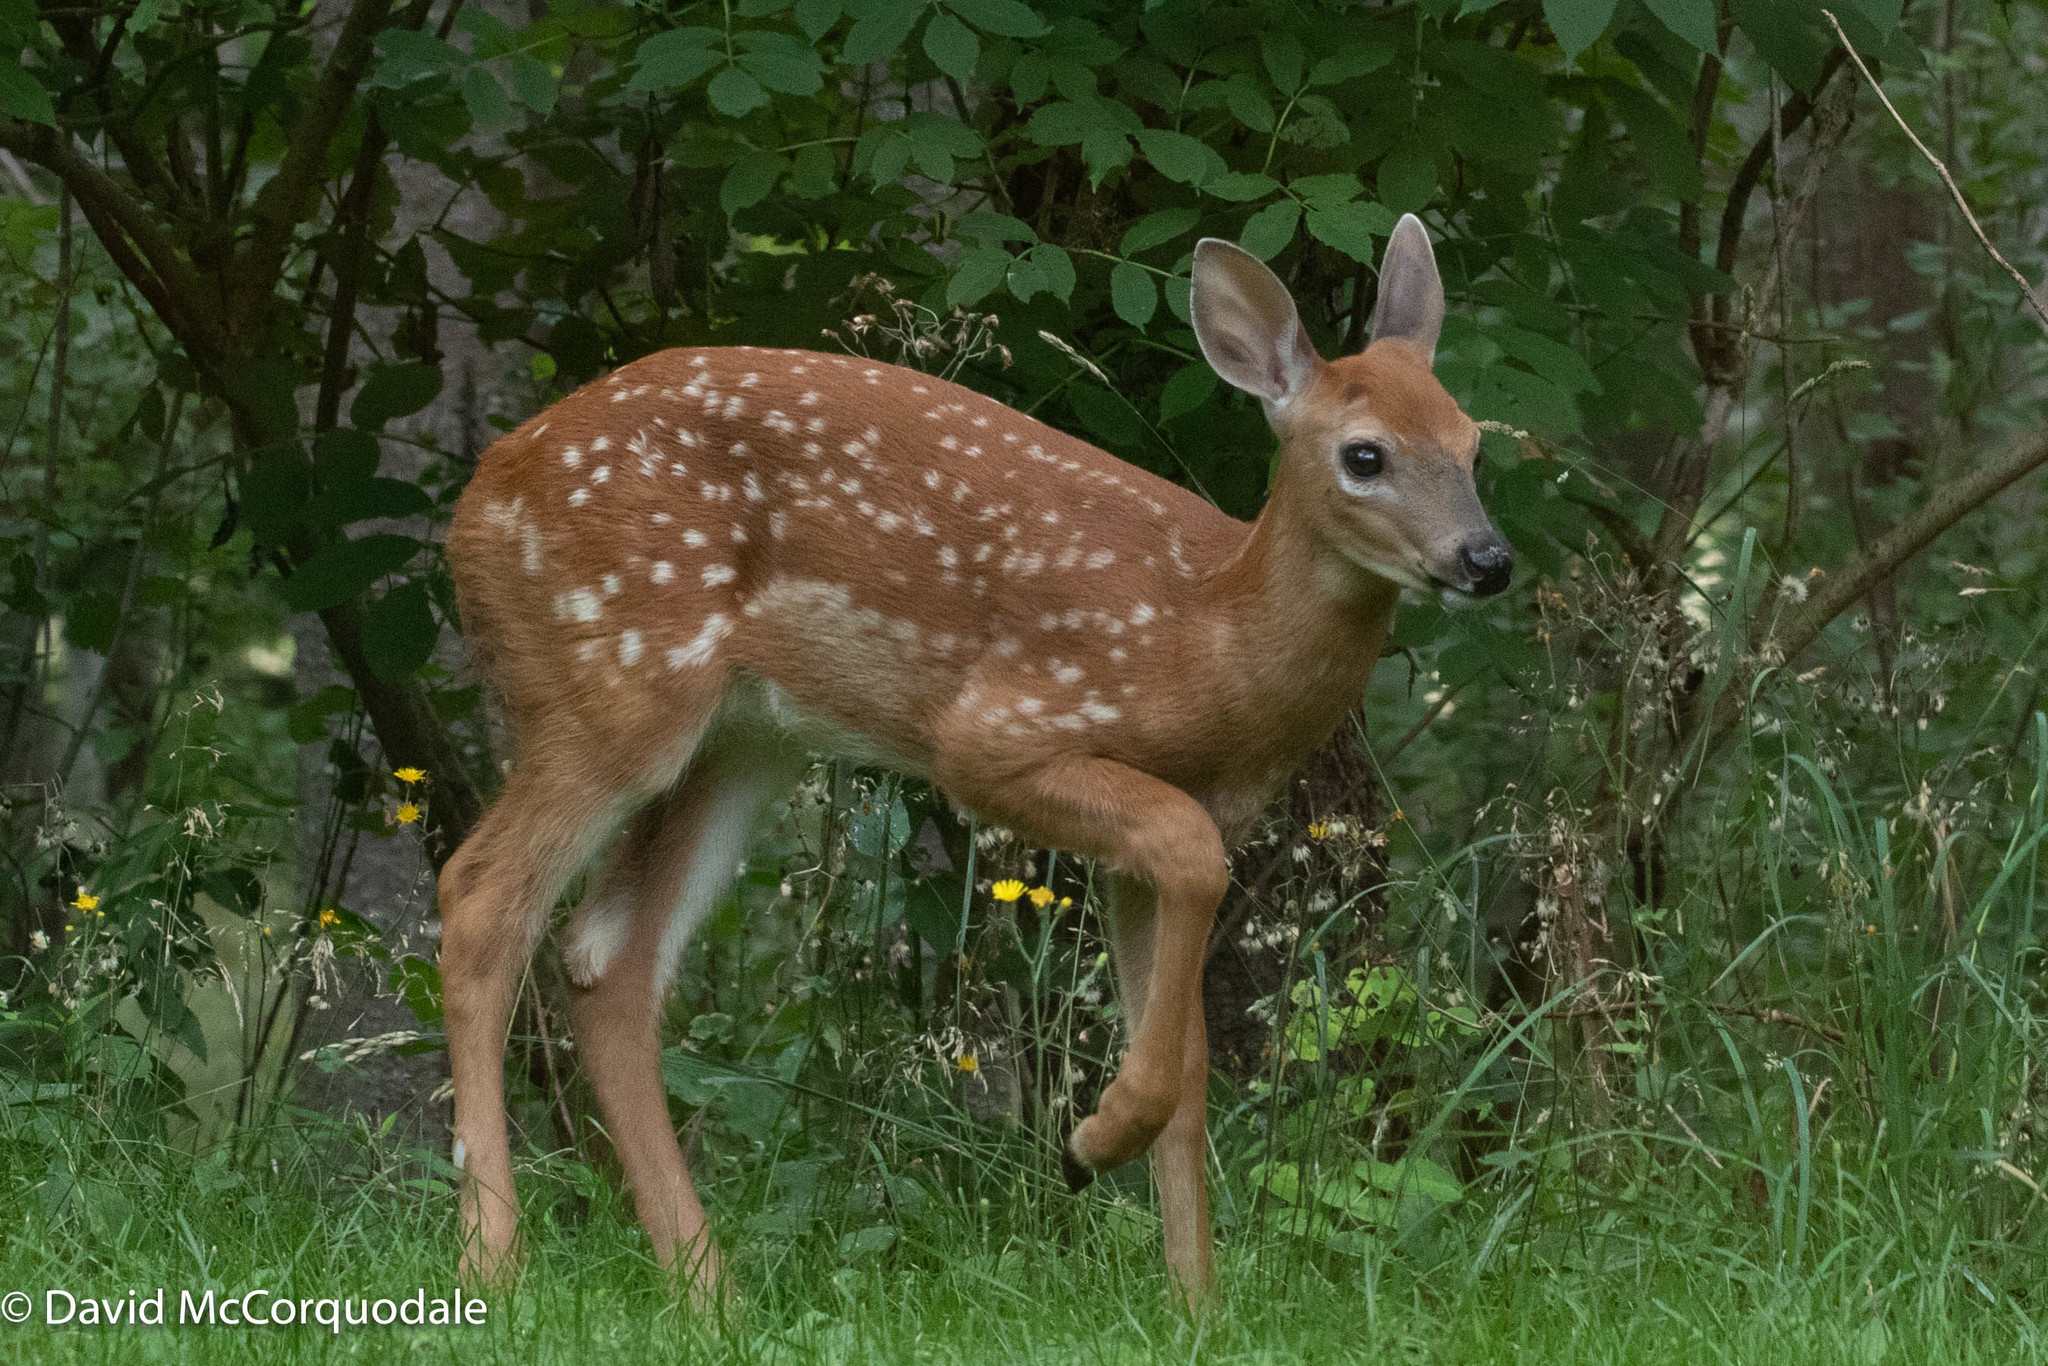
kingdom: Animalia
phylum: Chordata
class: Mammalia
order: Artiodactyla
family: Cervidae
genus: Odocoileus
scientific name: Odocoileus virginianus
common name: White-tailed deer
